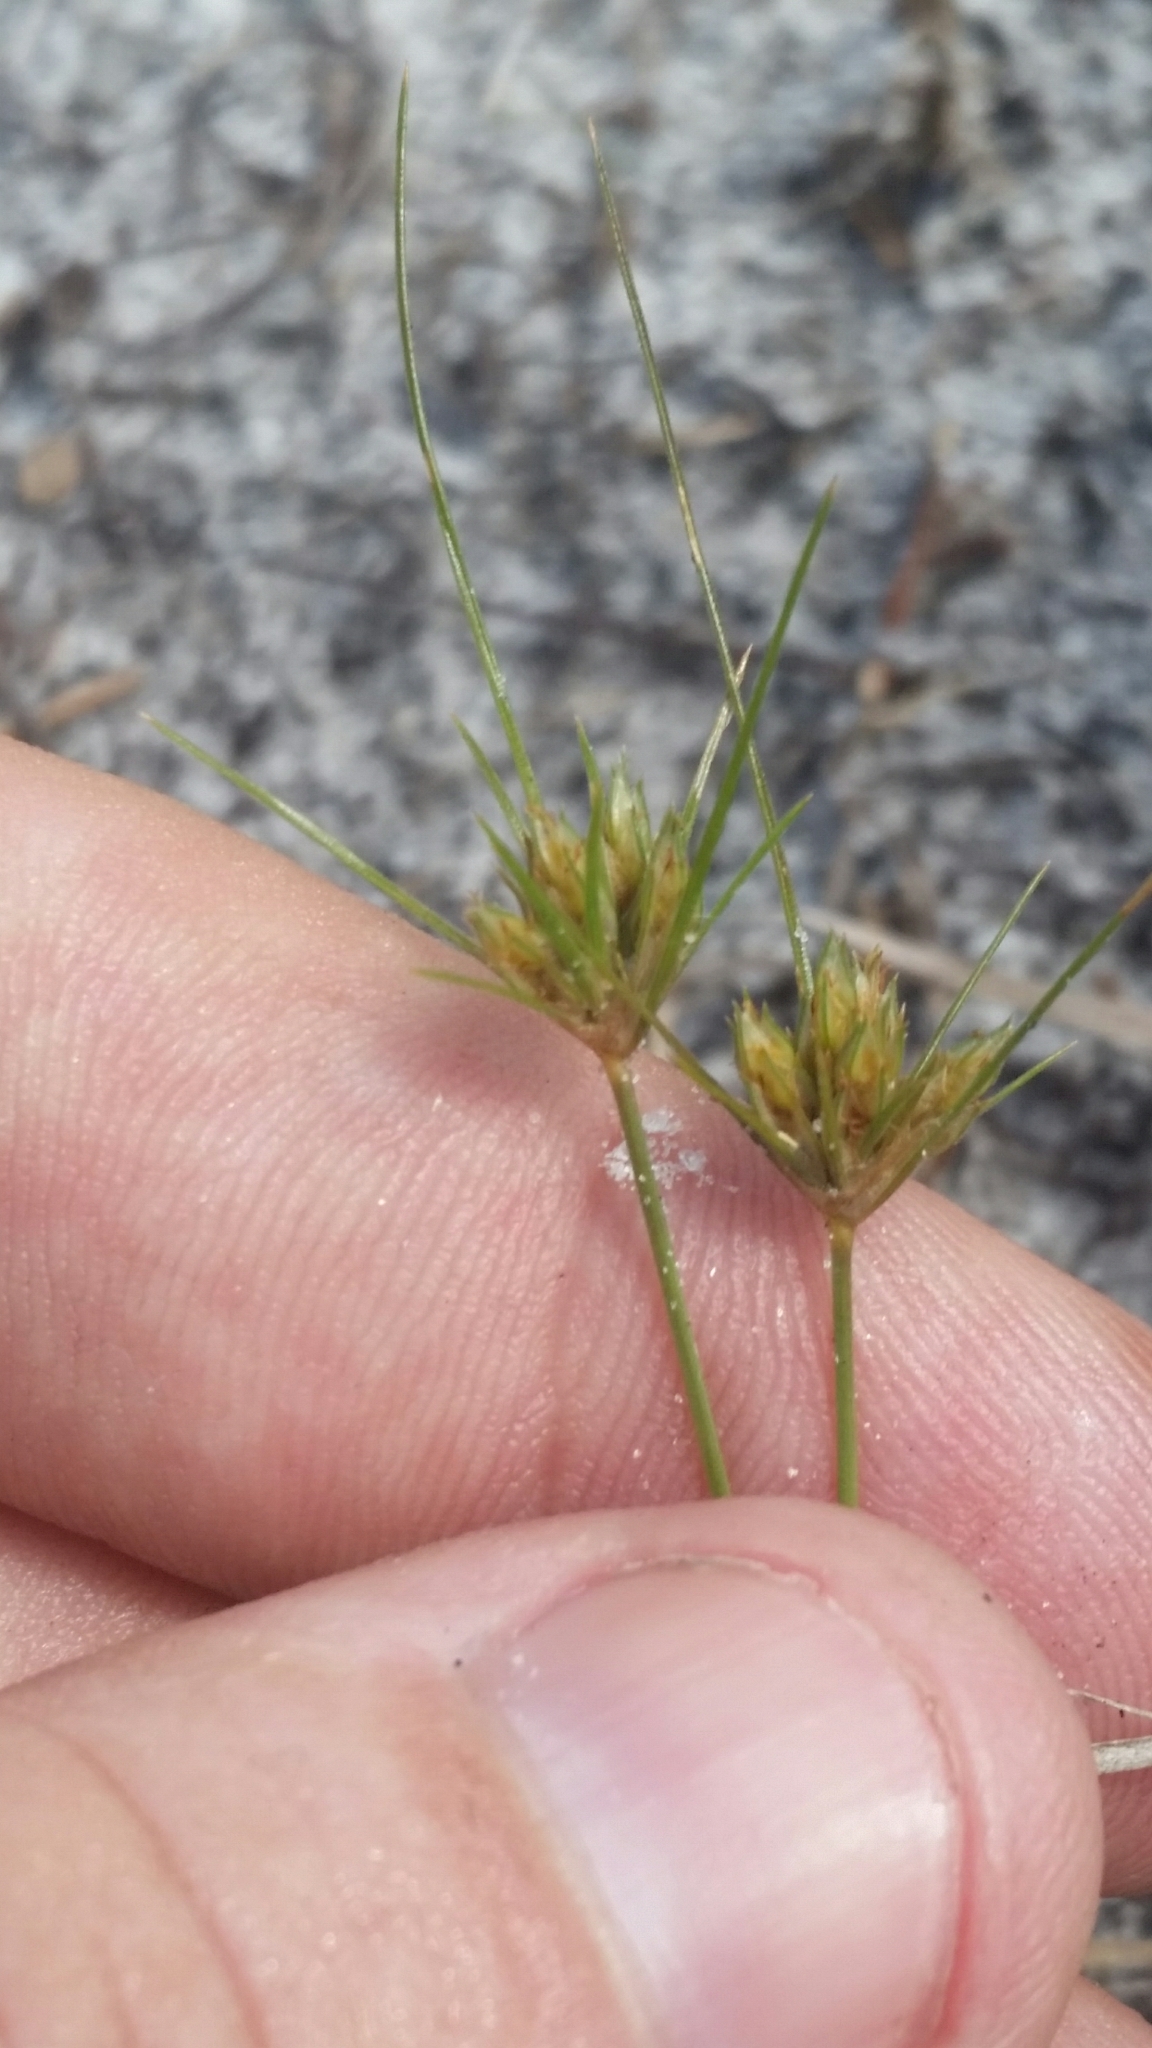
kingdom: Plantae
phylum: Tracheophyta
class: Liliopsida
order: Poales
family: Cyperaceae
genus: Bulbostylis
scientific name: Bulbostylis stenophylla
